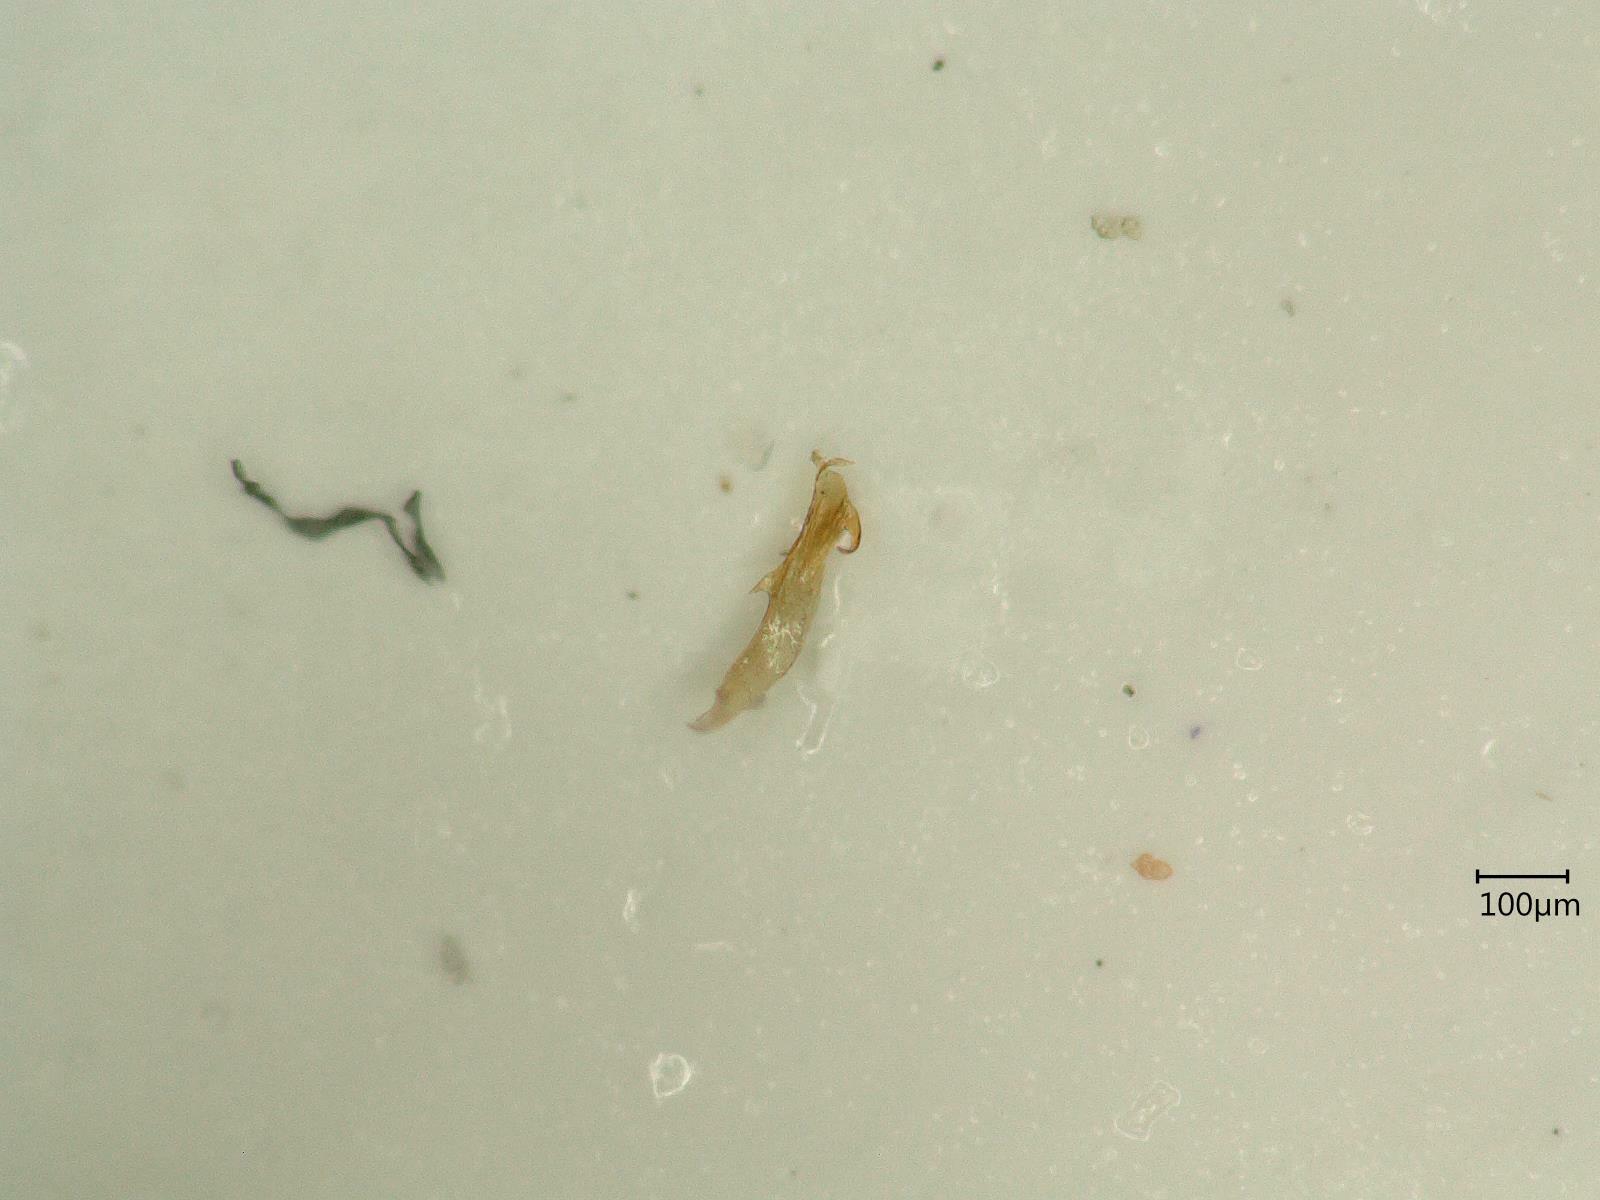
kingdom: Animalia
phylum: Arthropoda
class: Insecta
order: Hemiptera
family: Cicadellidae
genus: Dikraneura
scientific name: Dikraneura variata
